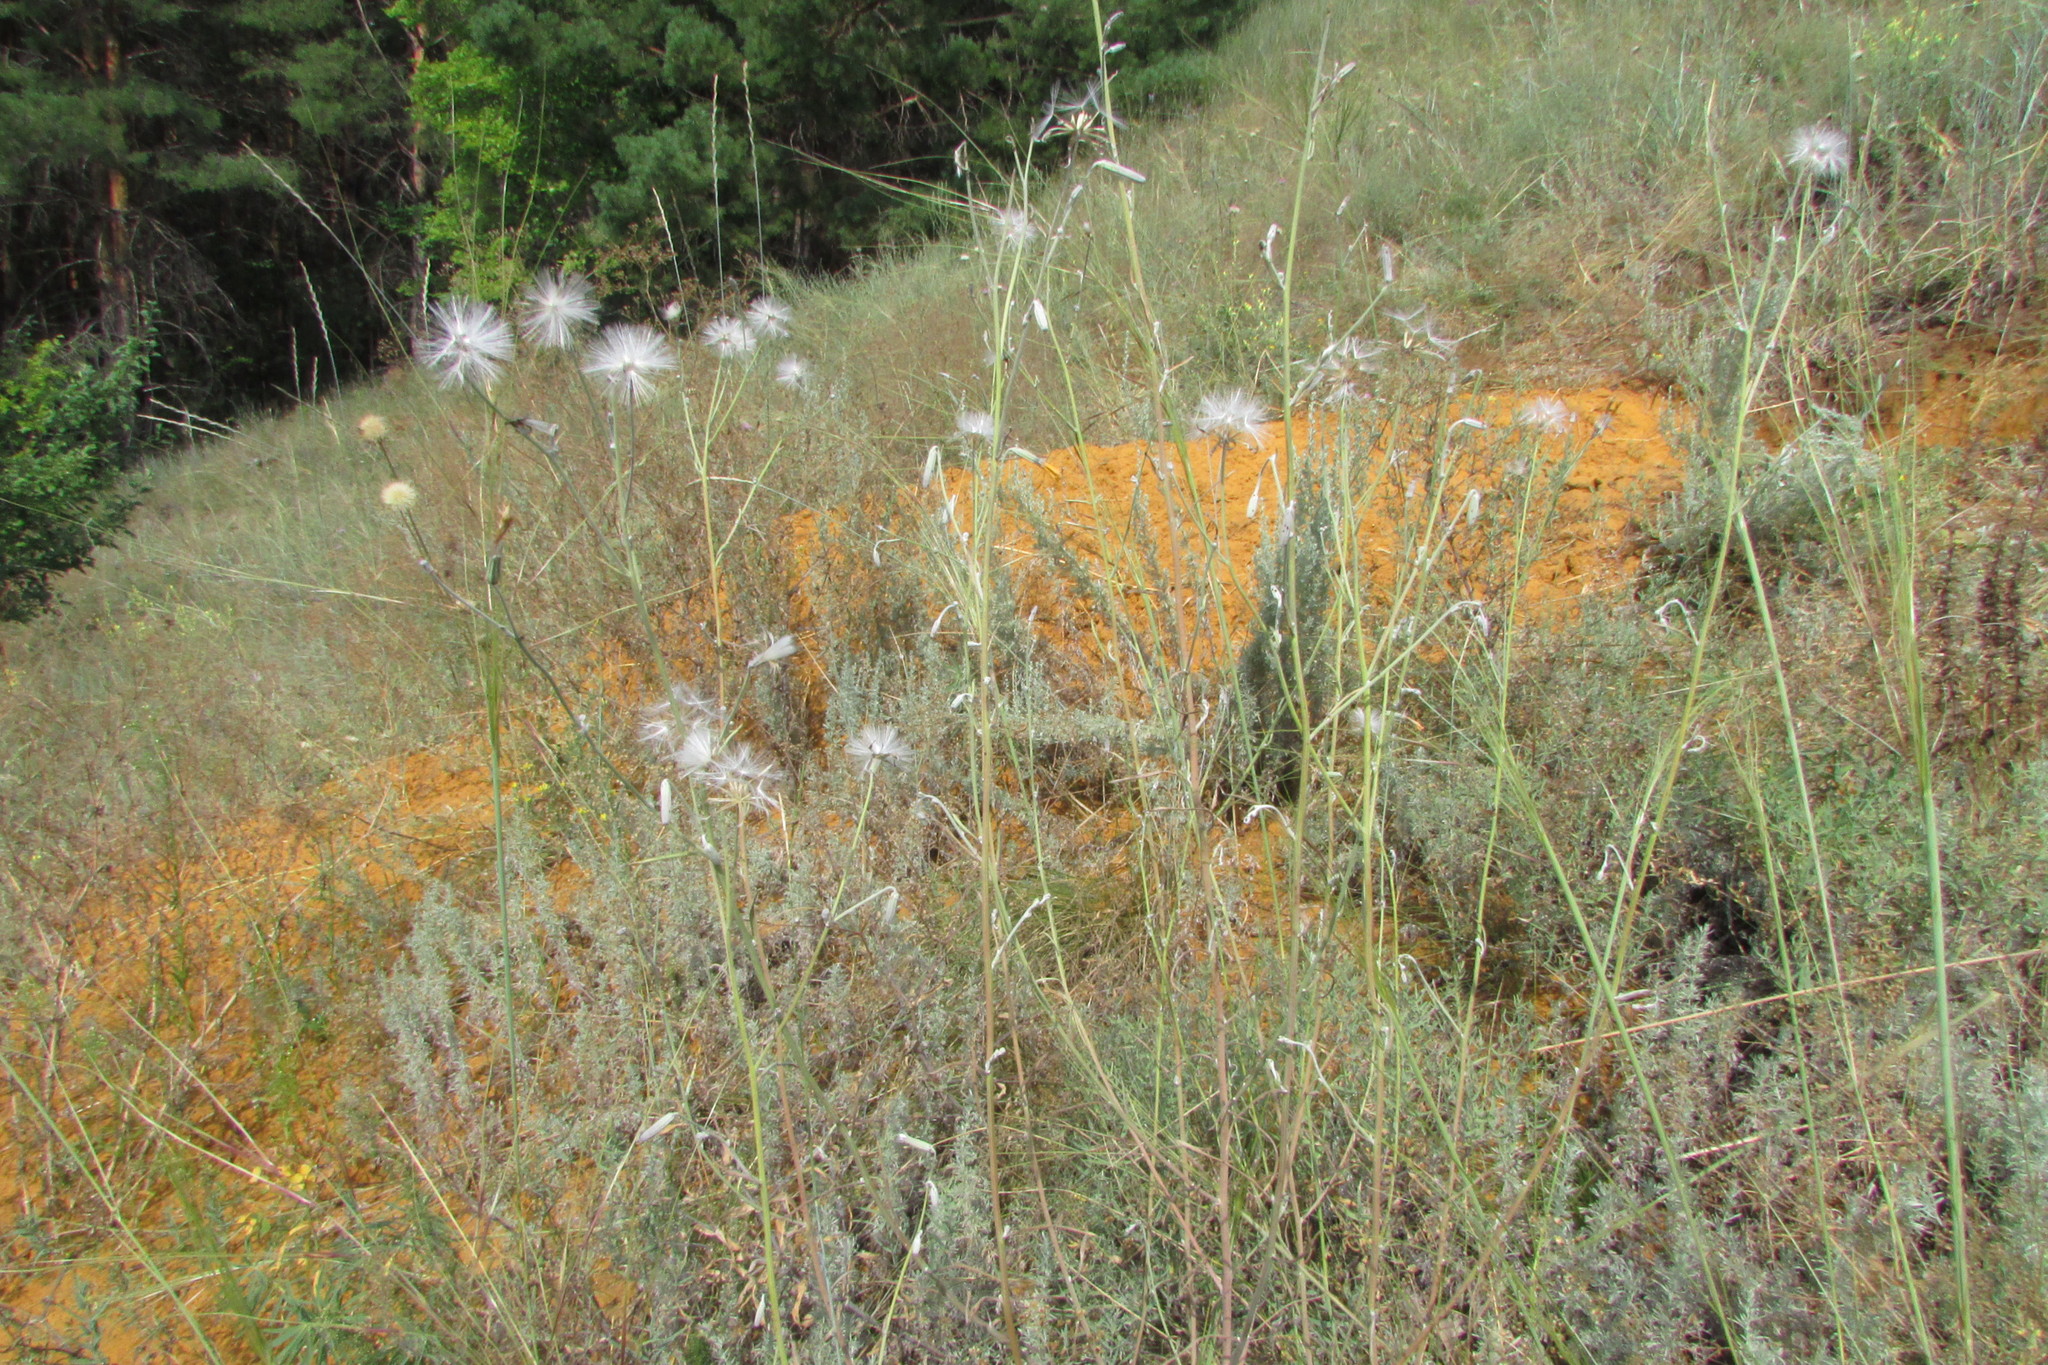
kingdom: Plantae
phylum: Tracheophyta
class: Magnoliopsida
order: Asterales
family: Asteraceae
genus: Chondrilla
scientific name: Chondrilla juncea
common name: Skeleton weed
